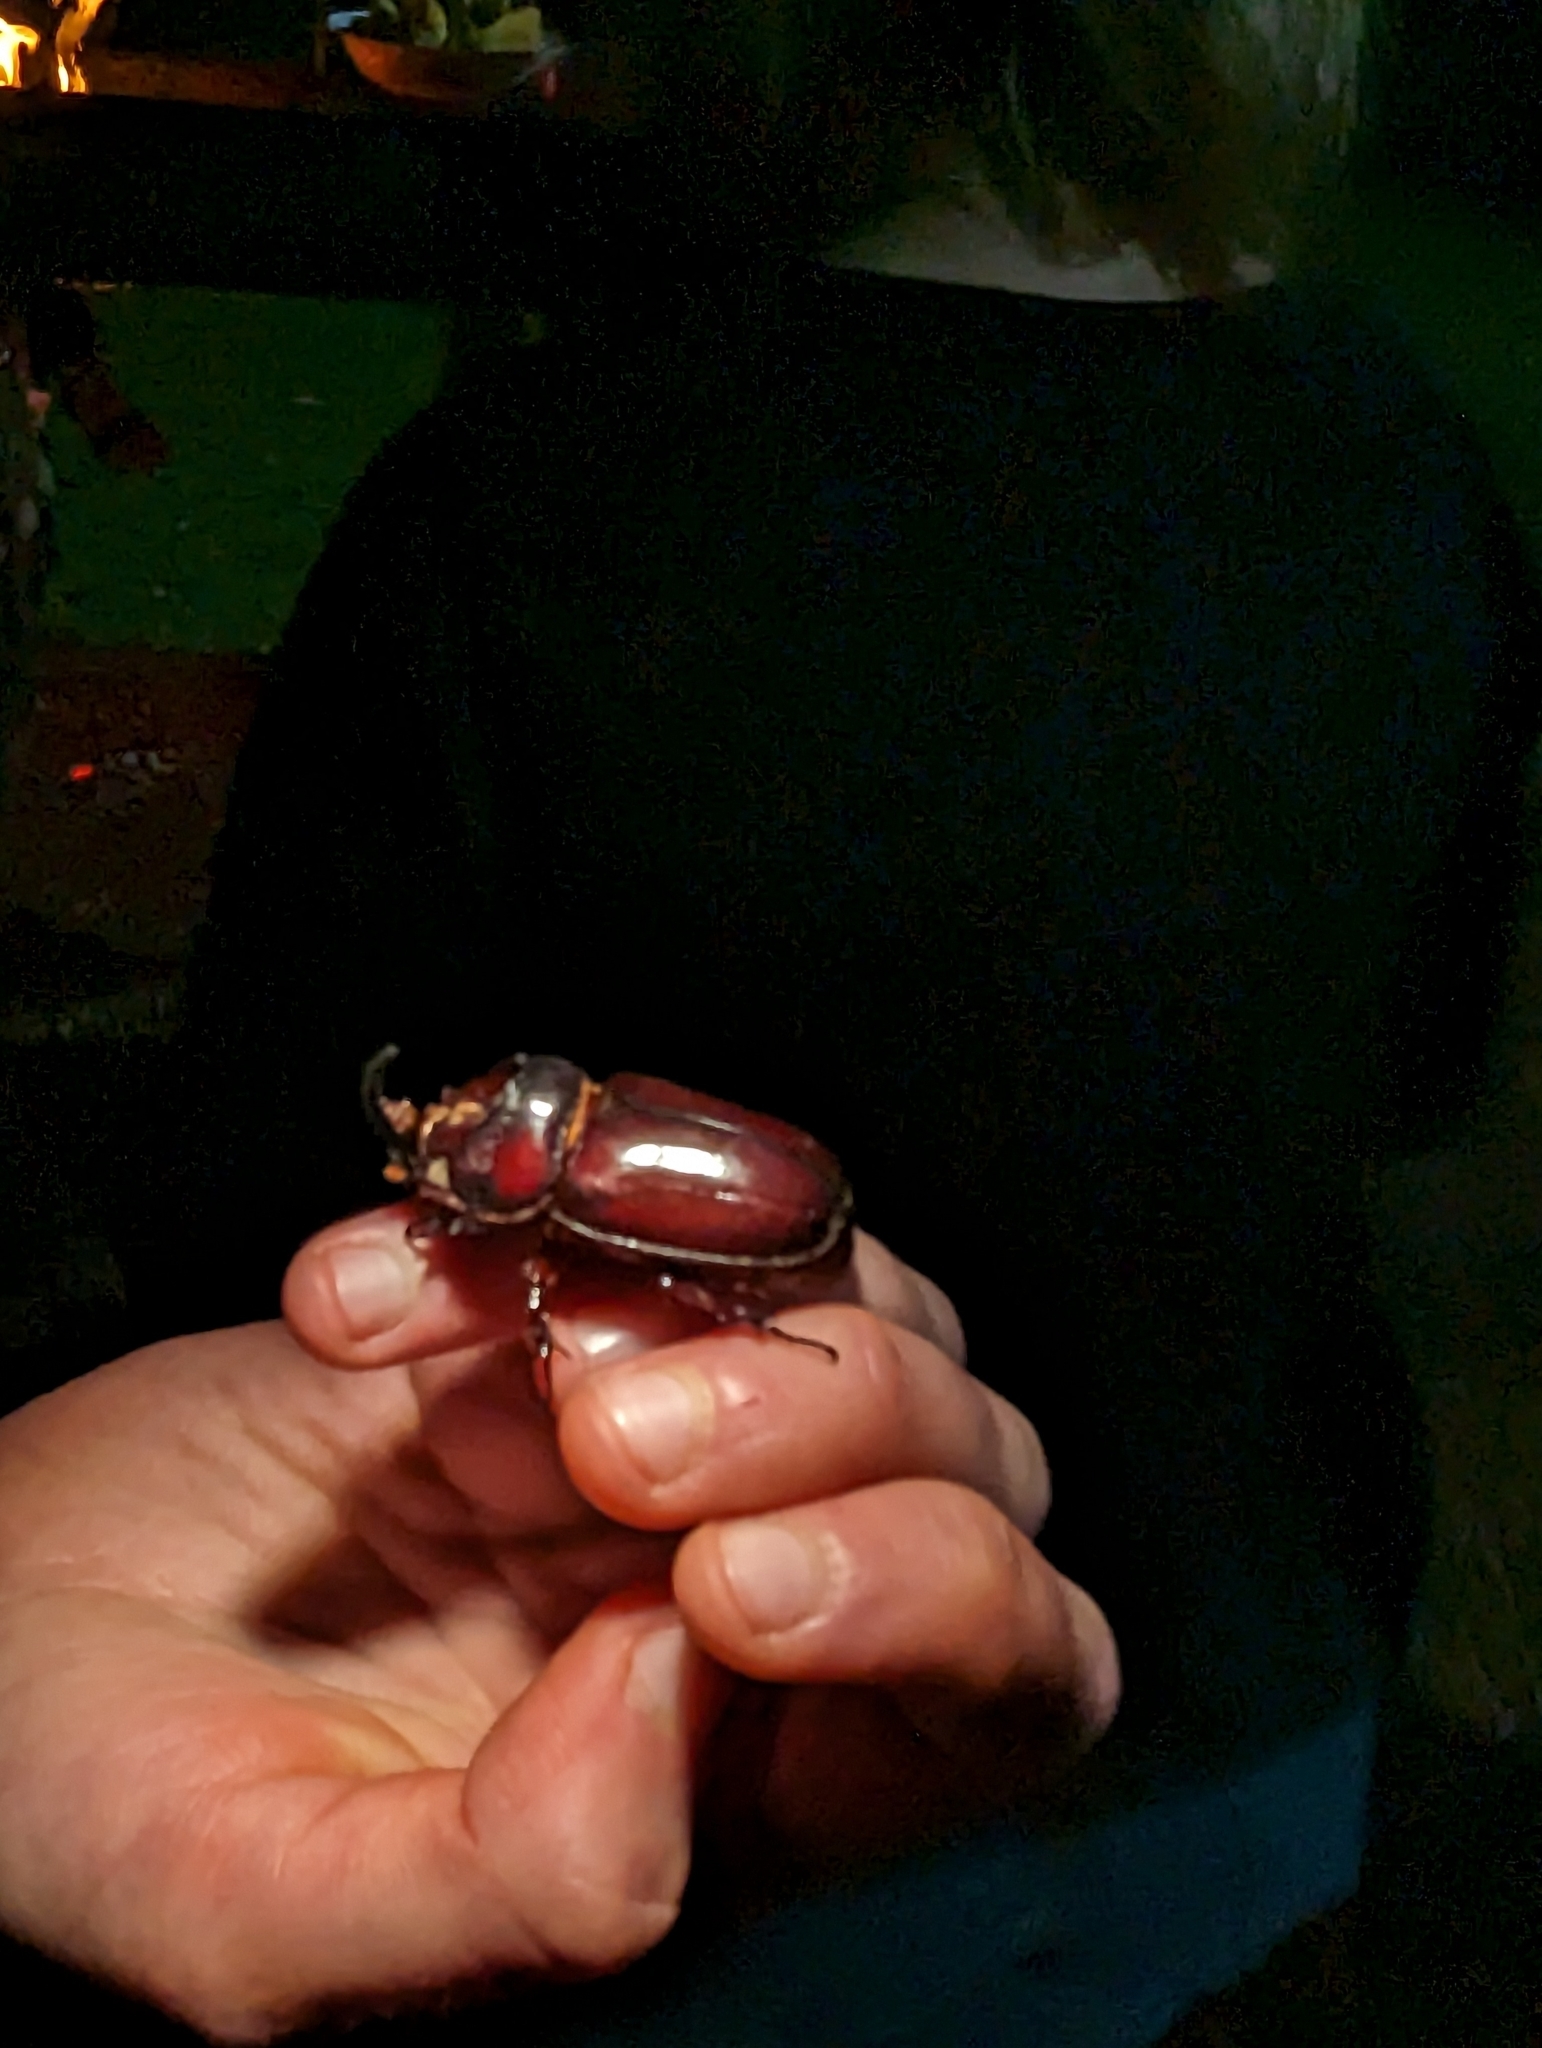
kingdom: Animalia
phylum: Arthropoda
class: Insecta
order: Coleoptera
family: Scarabaeidae
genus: Oryctes
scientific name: Oryctes boas
